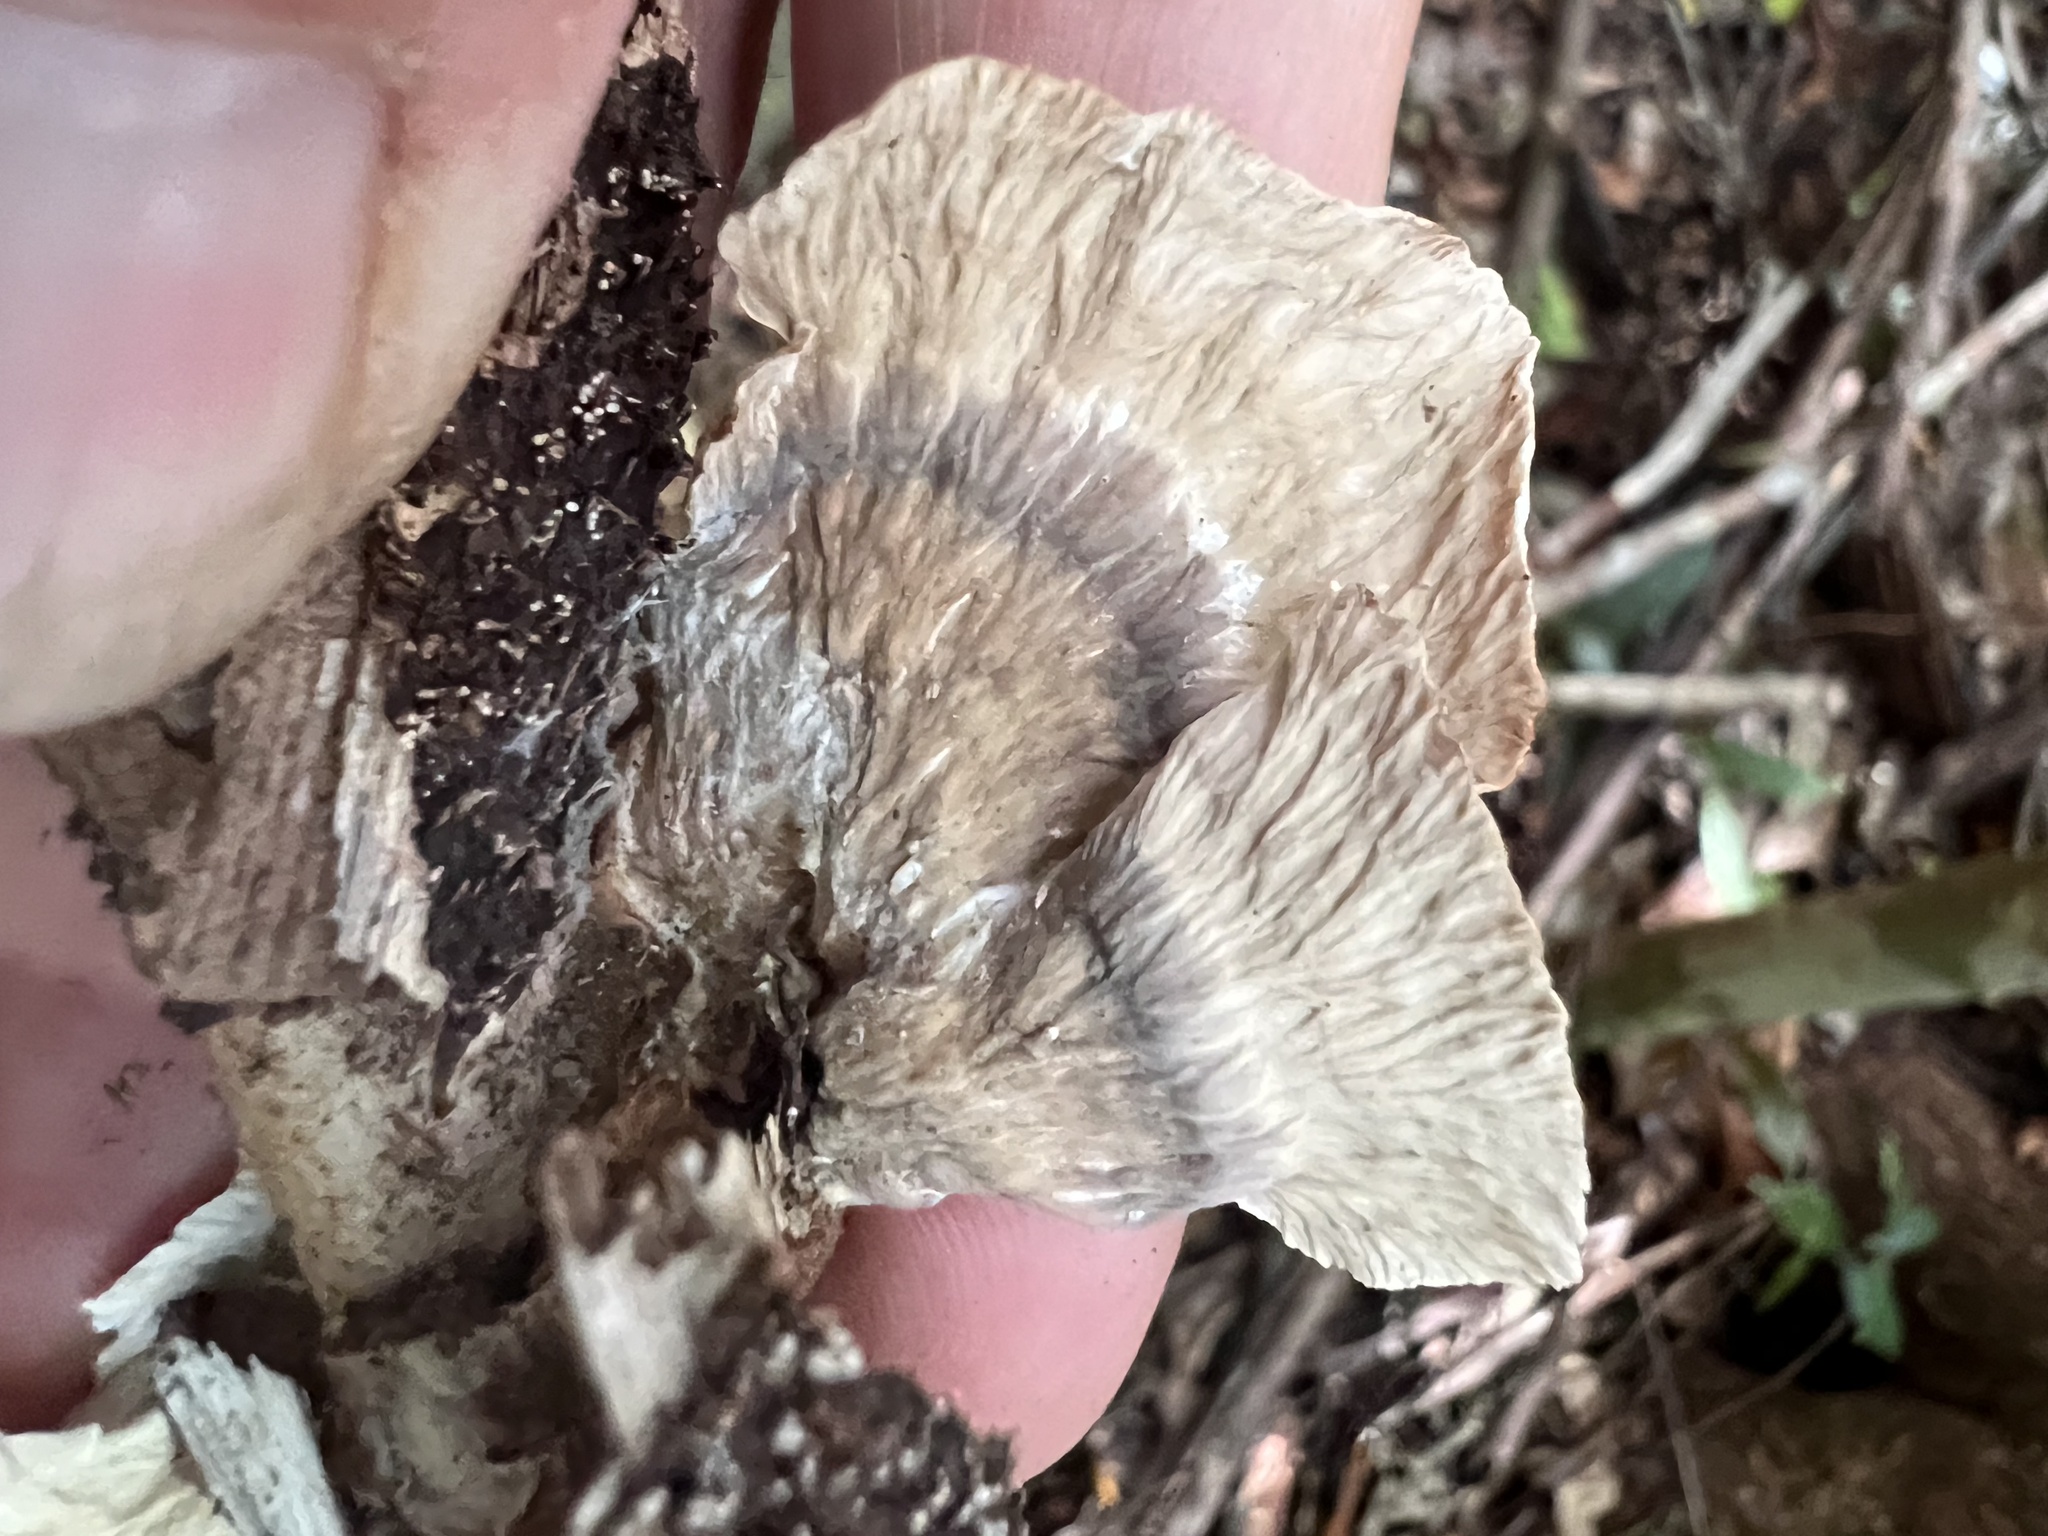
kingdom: Fungi
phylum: Basidiomycota
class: Agaricomycetes
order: Polyporales
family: Panaceae
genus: Cymatoderma
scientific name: Cymatoderma elegans
